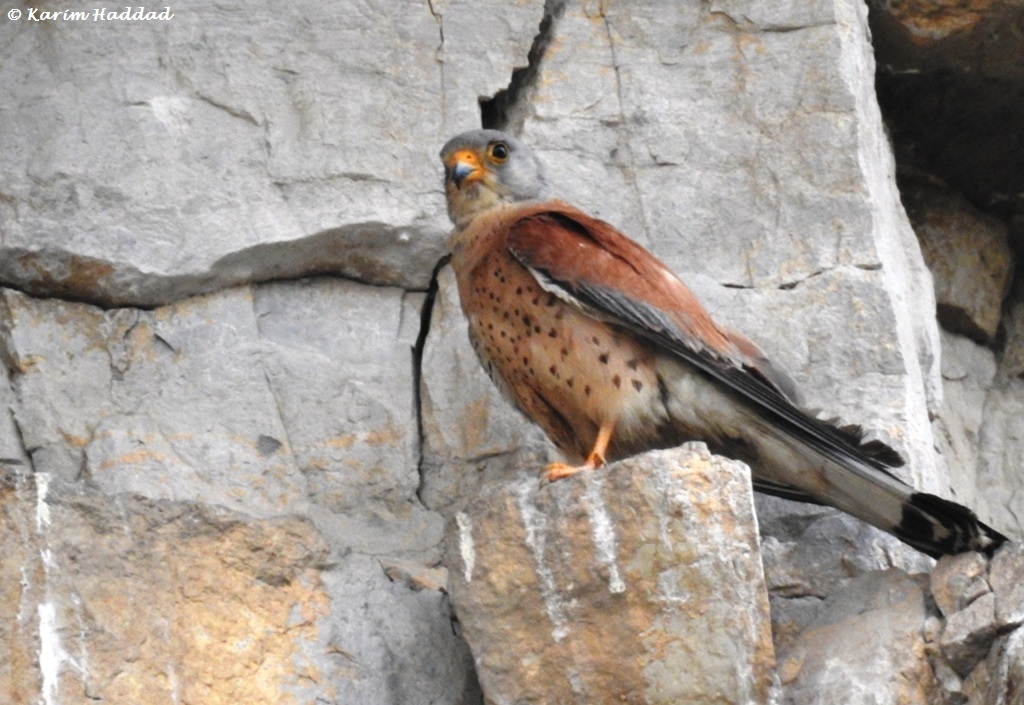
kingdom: Animalia
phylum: Chordata
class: Aves
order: Falconiformes
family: Falconidae
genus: Falco
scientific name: Falco naumanni
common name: Lesser kestrel
